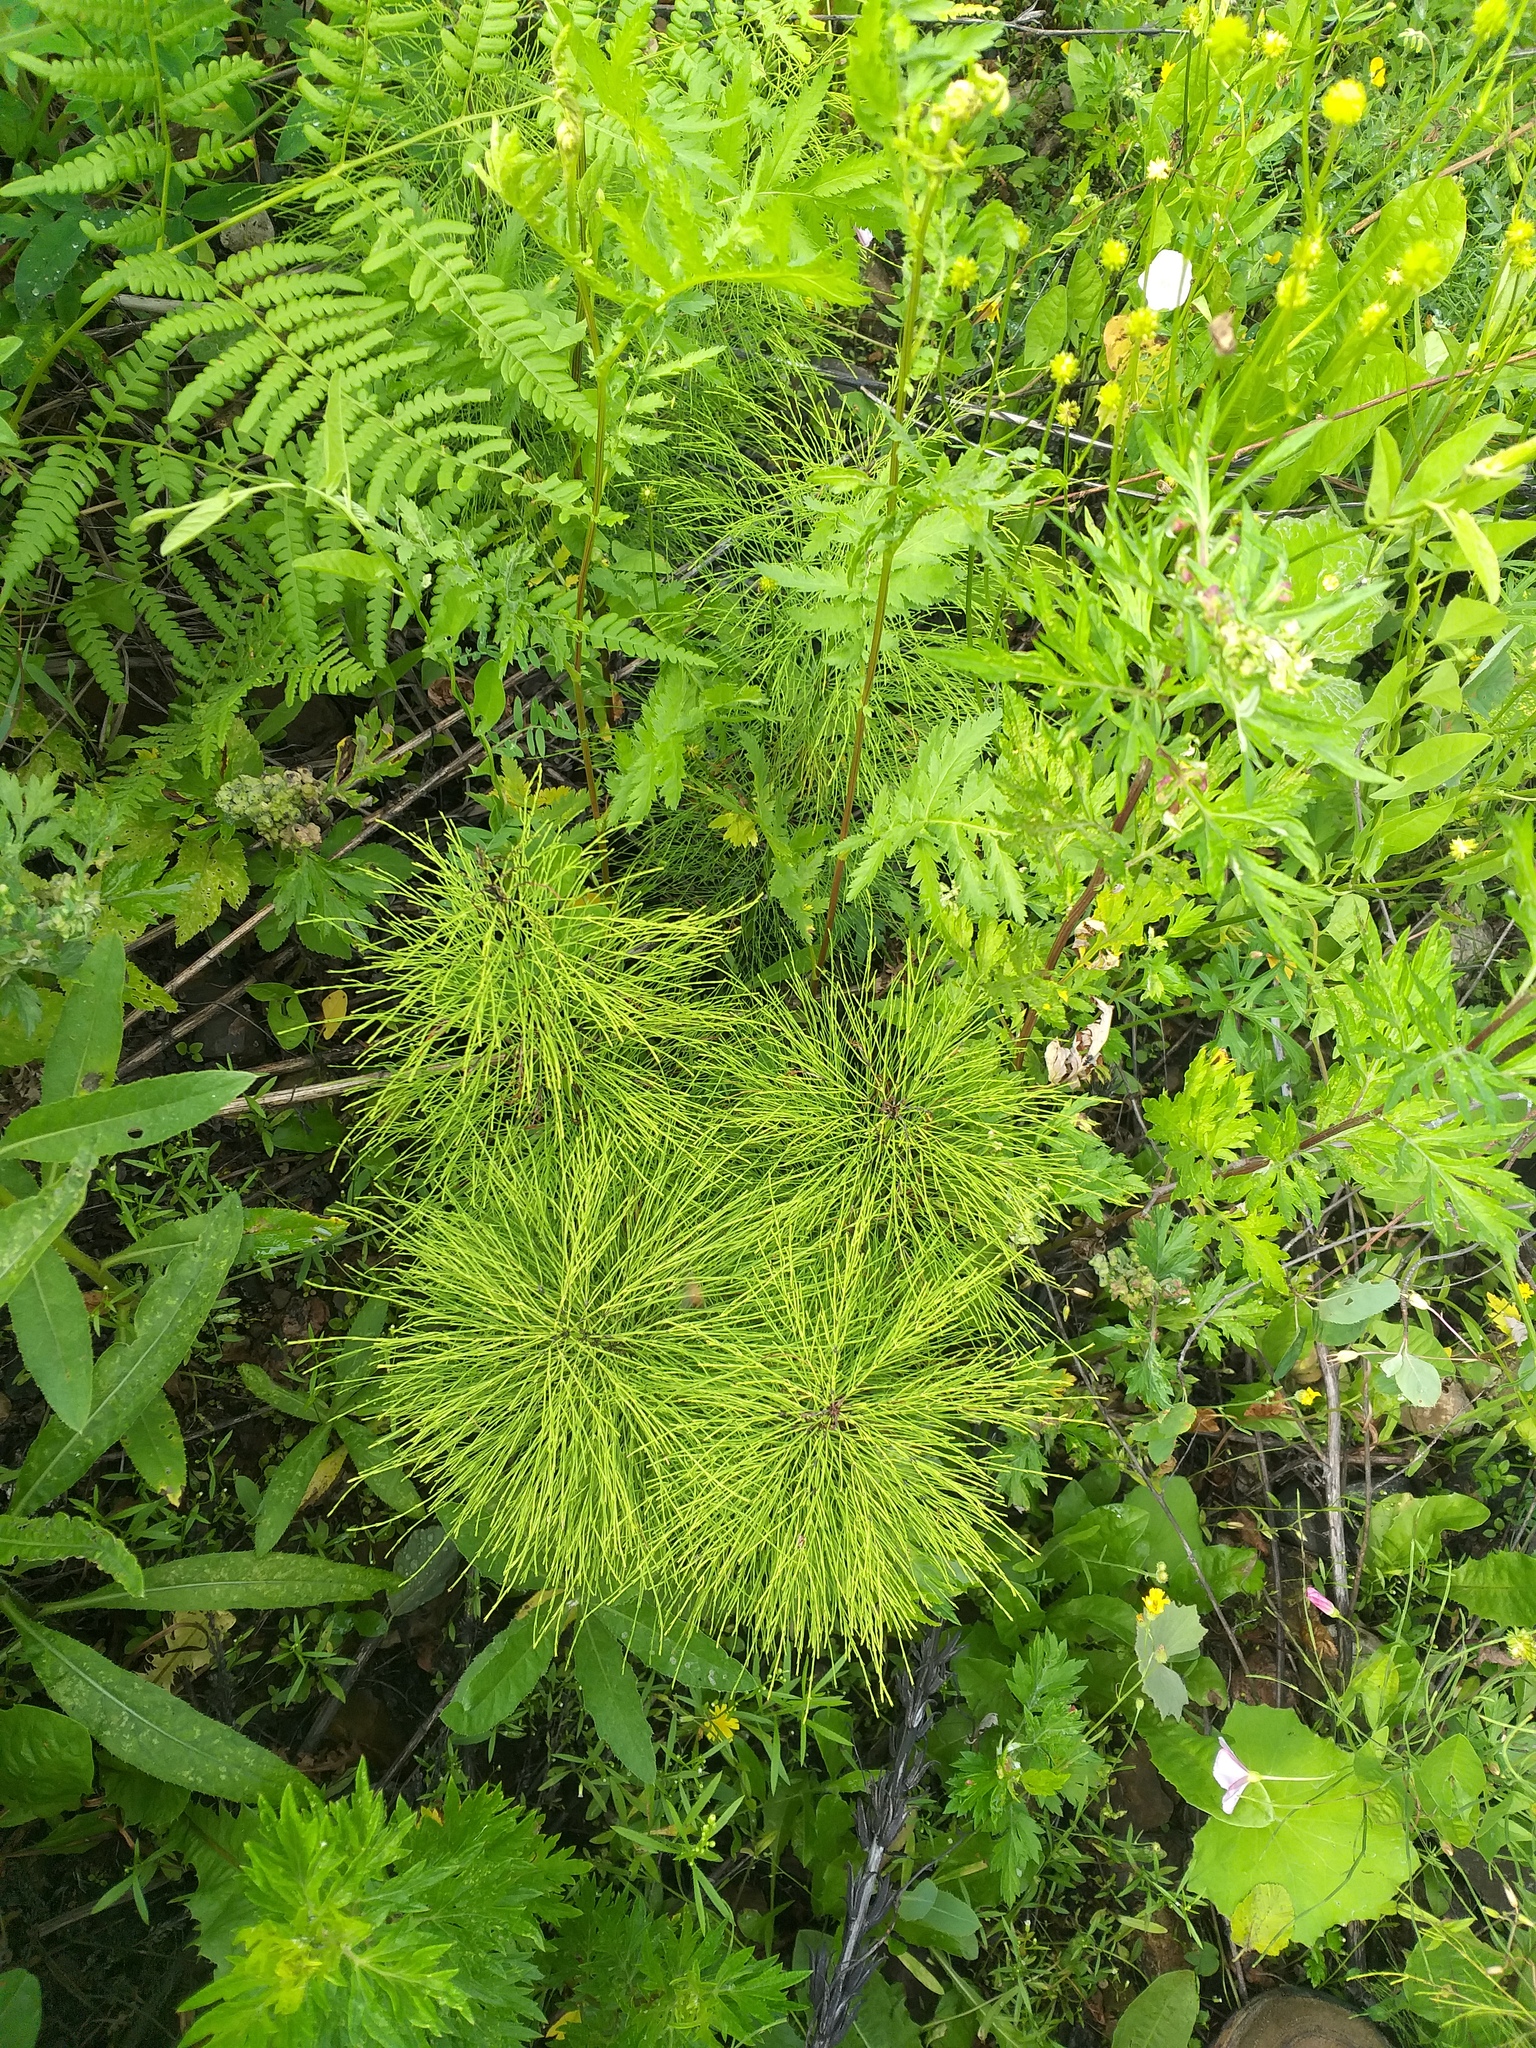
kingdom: Plantae
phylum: Tracheophyta
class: Polypodiopsida
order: Equisetales
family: Equisetaceae
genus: Equisetum
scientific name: Equisetum sylvaticum
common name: Wood horsetail
